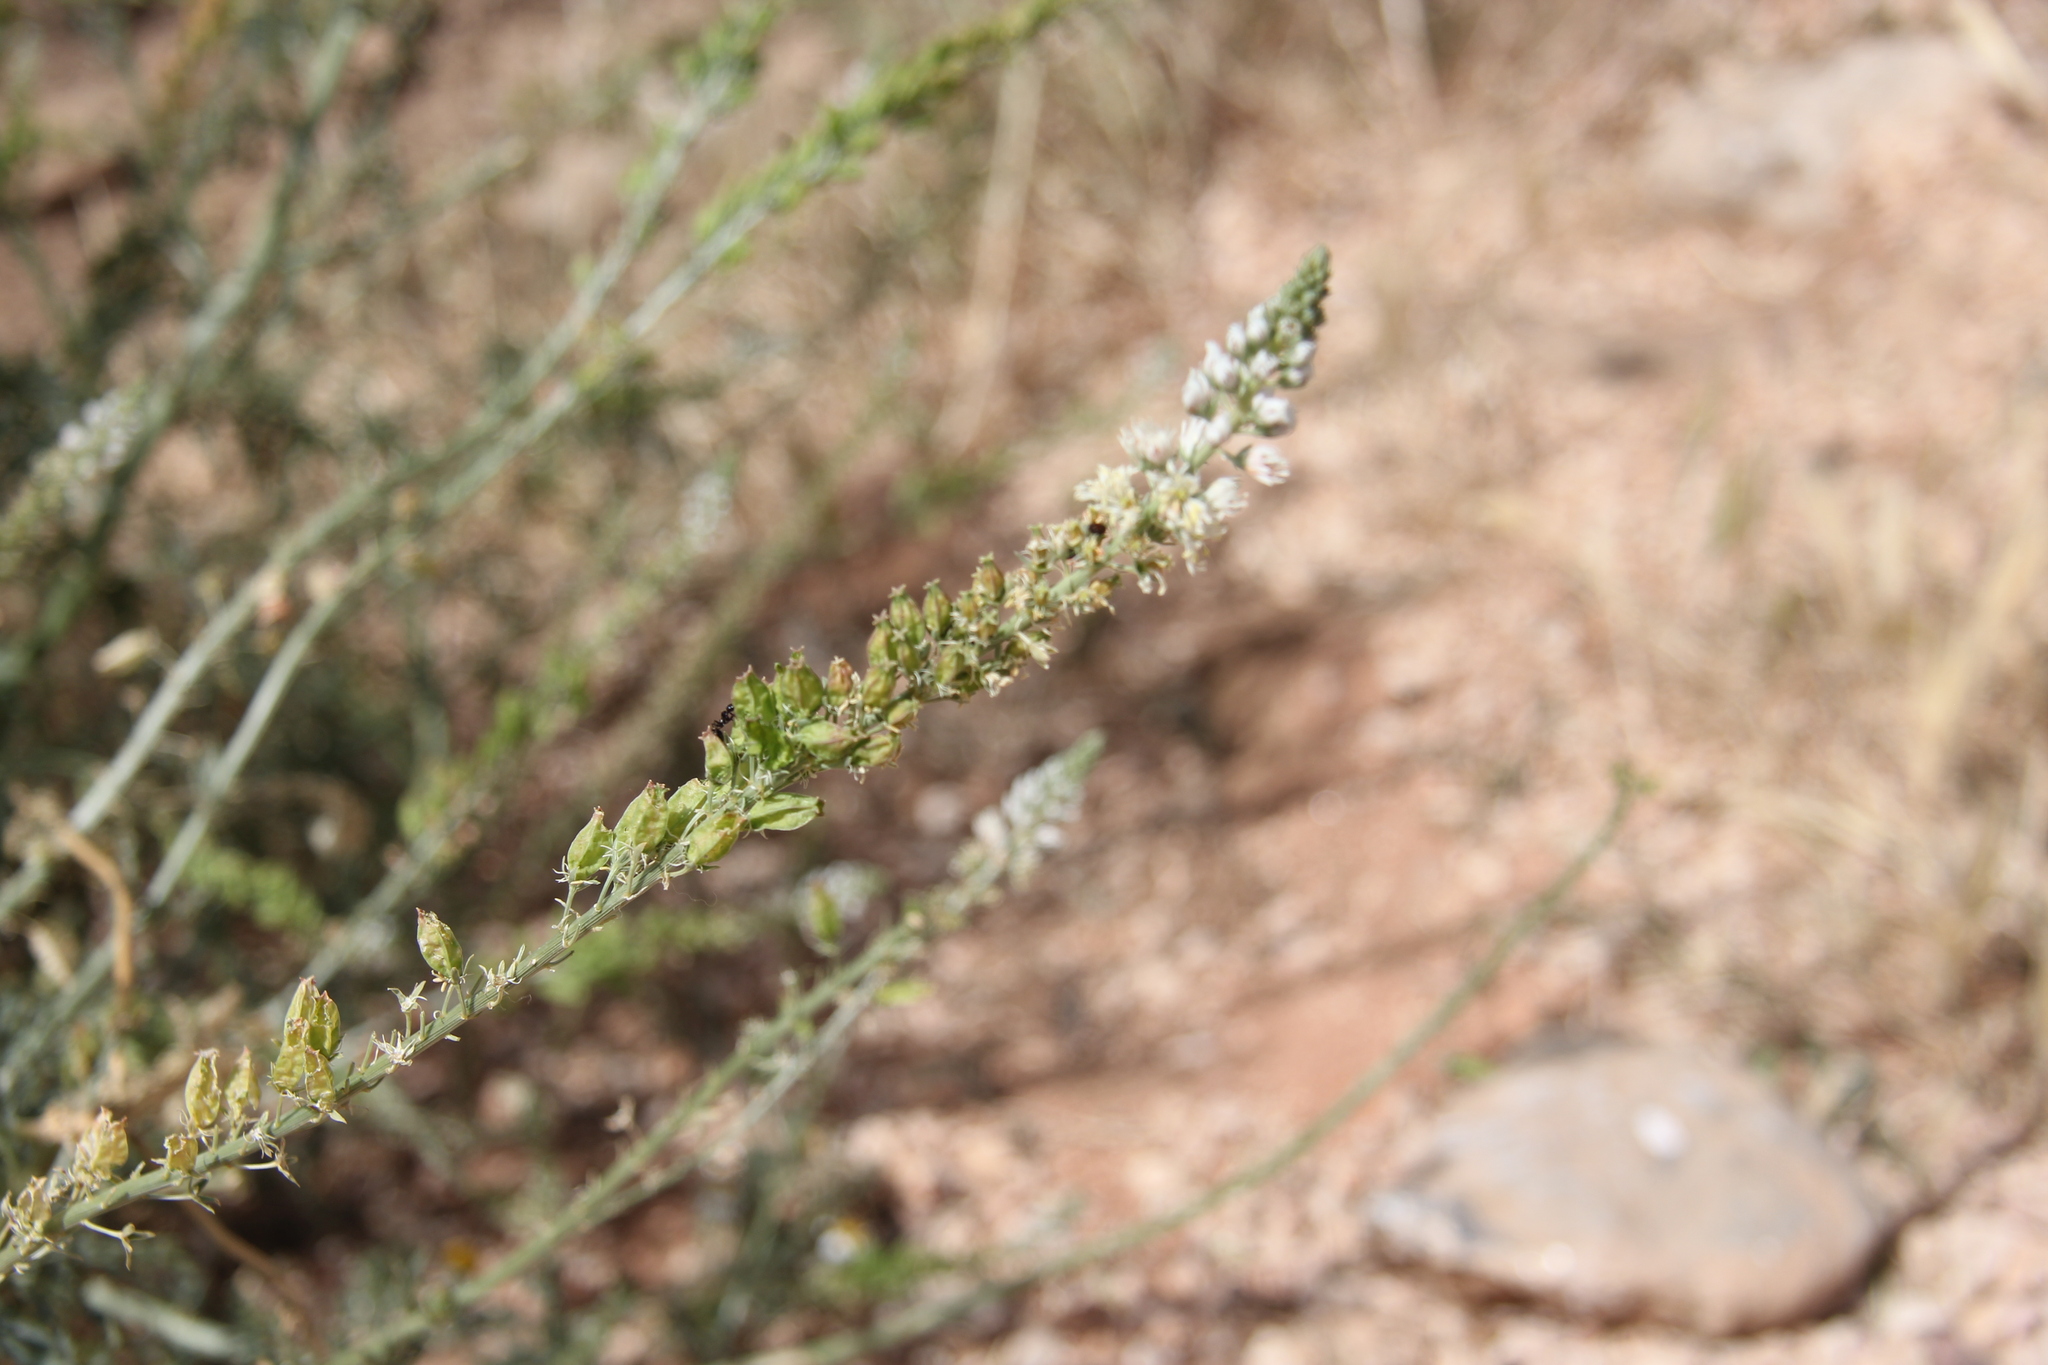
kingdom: Plantae
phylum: Tracheophyta
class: Magnoliopsida
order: Brassicales
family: Resedaceae
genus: Reseda
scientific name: Reseda alba
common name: White mignonette
